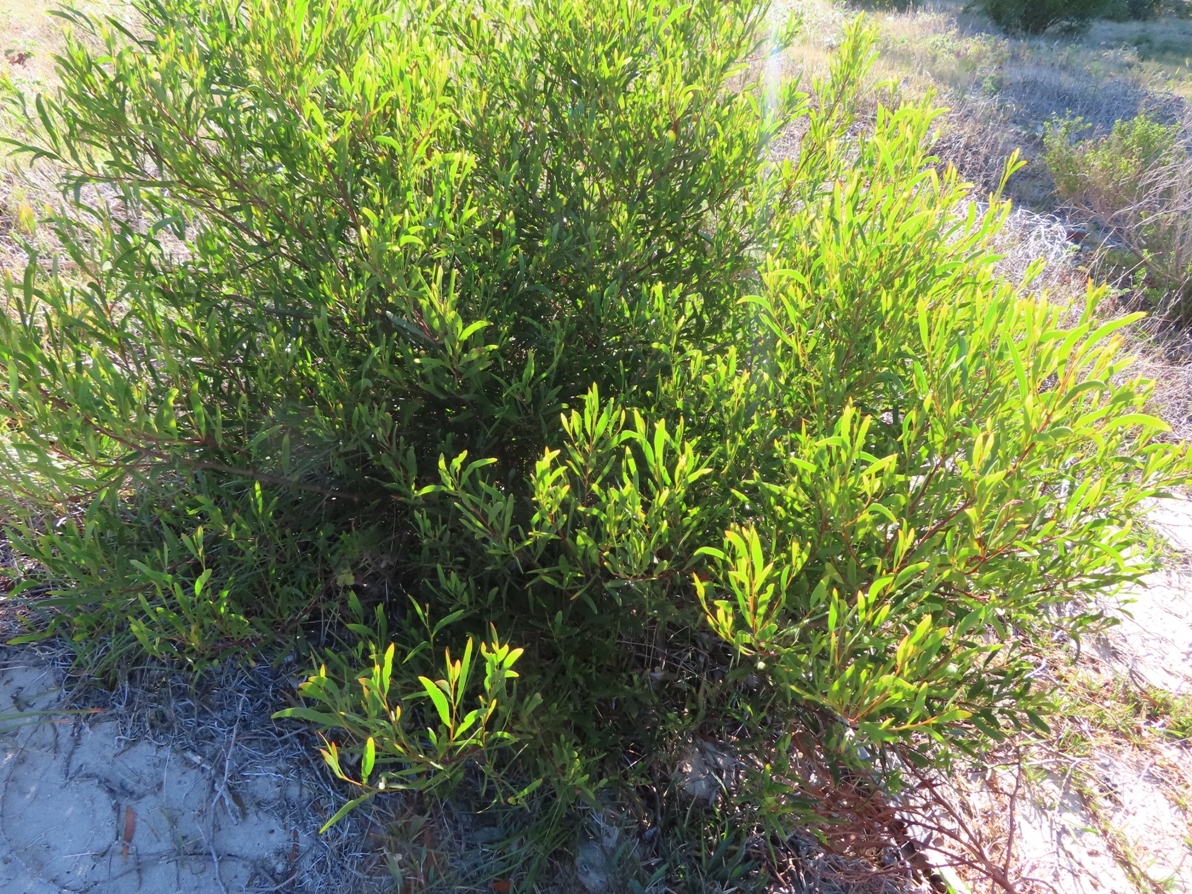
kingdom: Plantae
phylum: Tracheophyta
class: Magnoliopsida
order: Fabales
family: Fabaceae
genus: Acacia
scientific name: Acacia cyclops
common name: Coastal wattle
